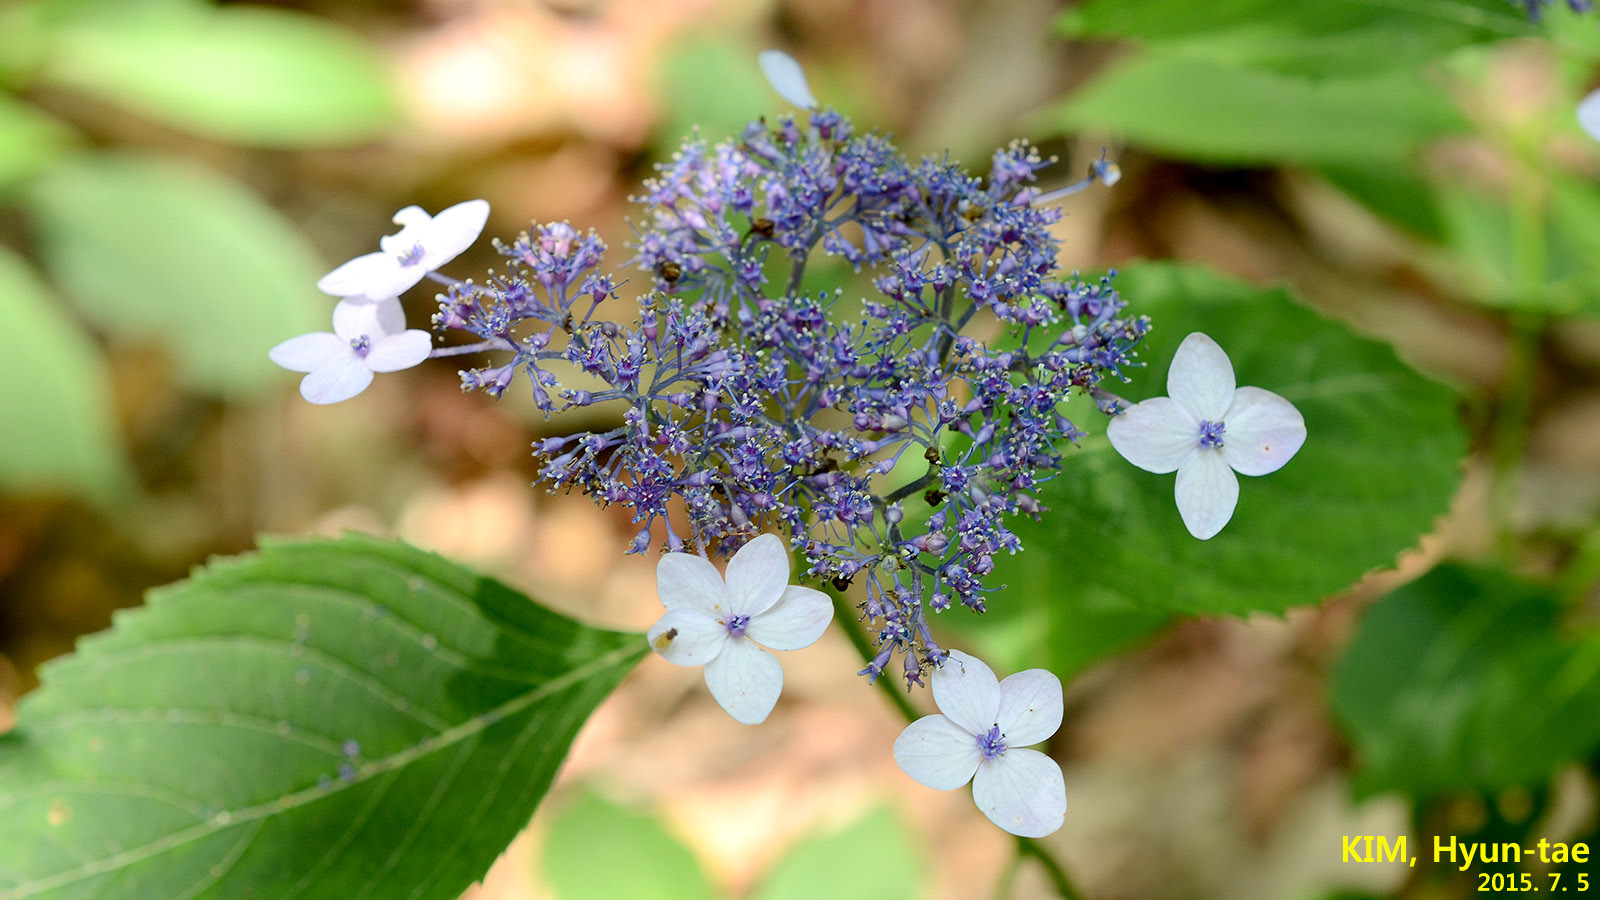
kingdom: Plantae
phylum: Tracheophyta
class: Magnoliopsida
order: Cornales
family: Hydrangeaceae
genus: Hydrangea
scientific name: Hydrangea serrata
